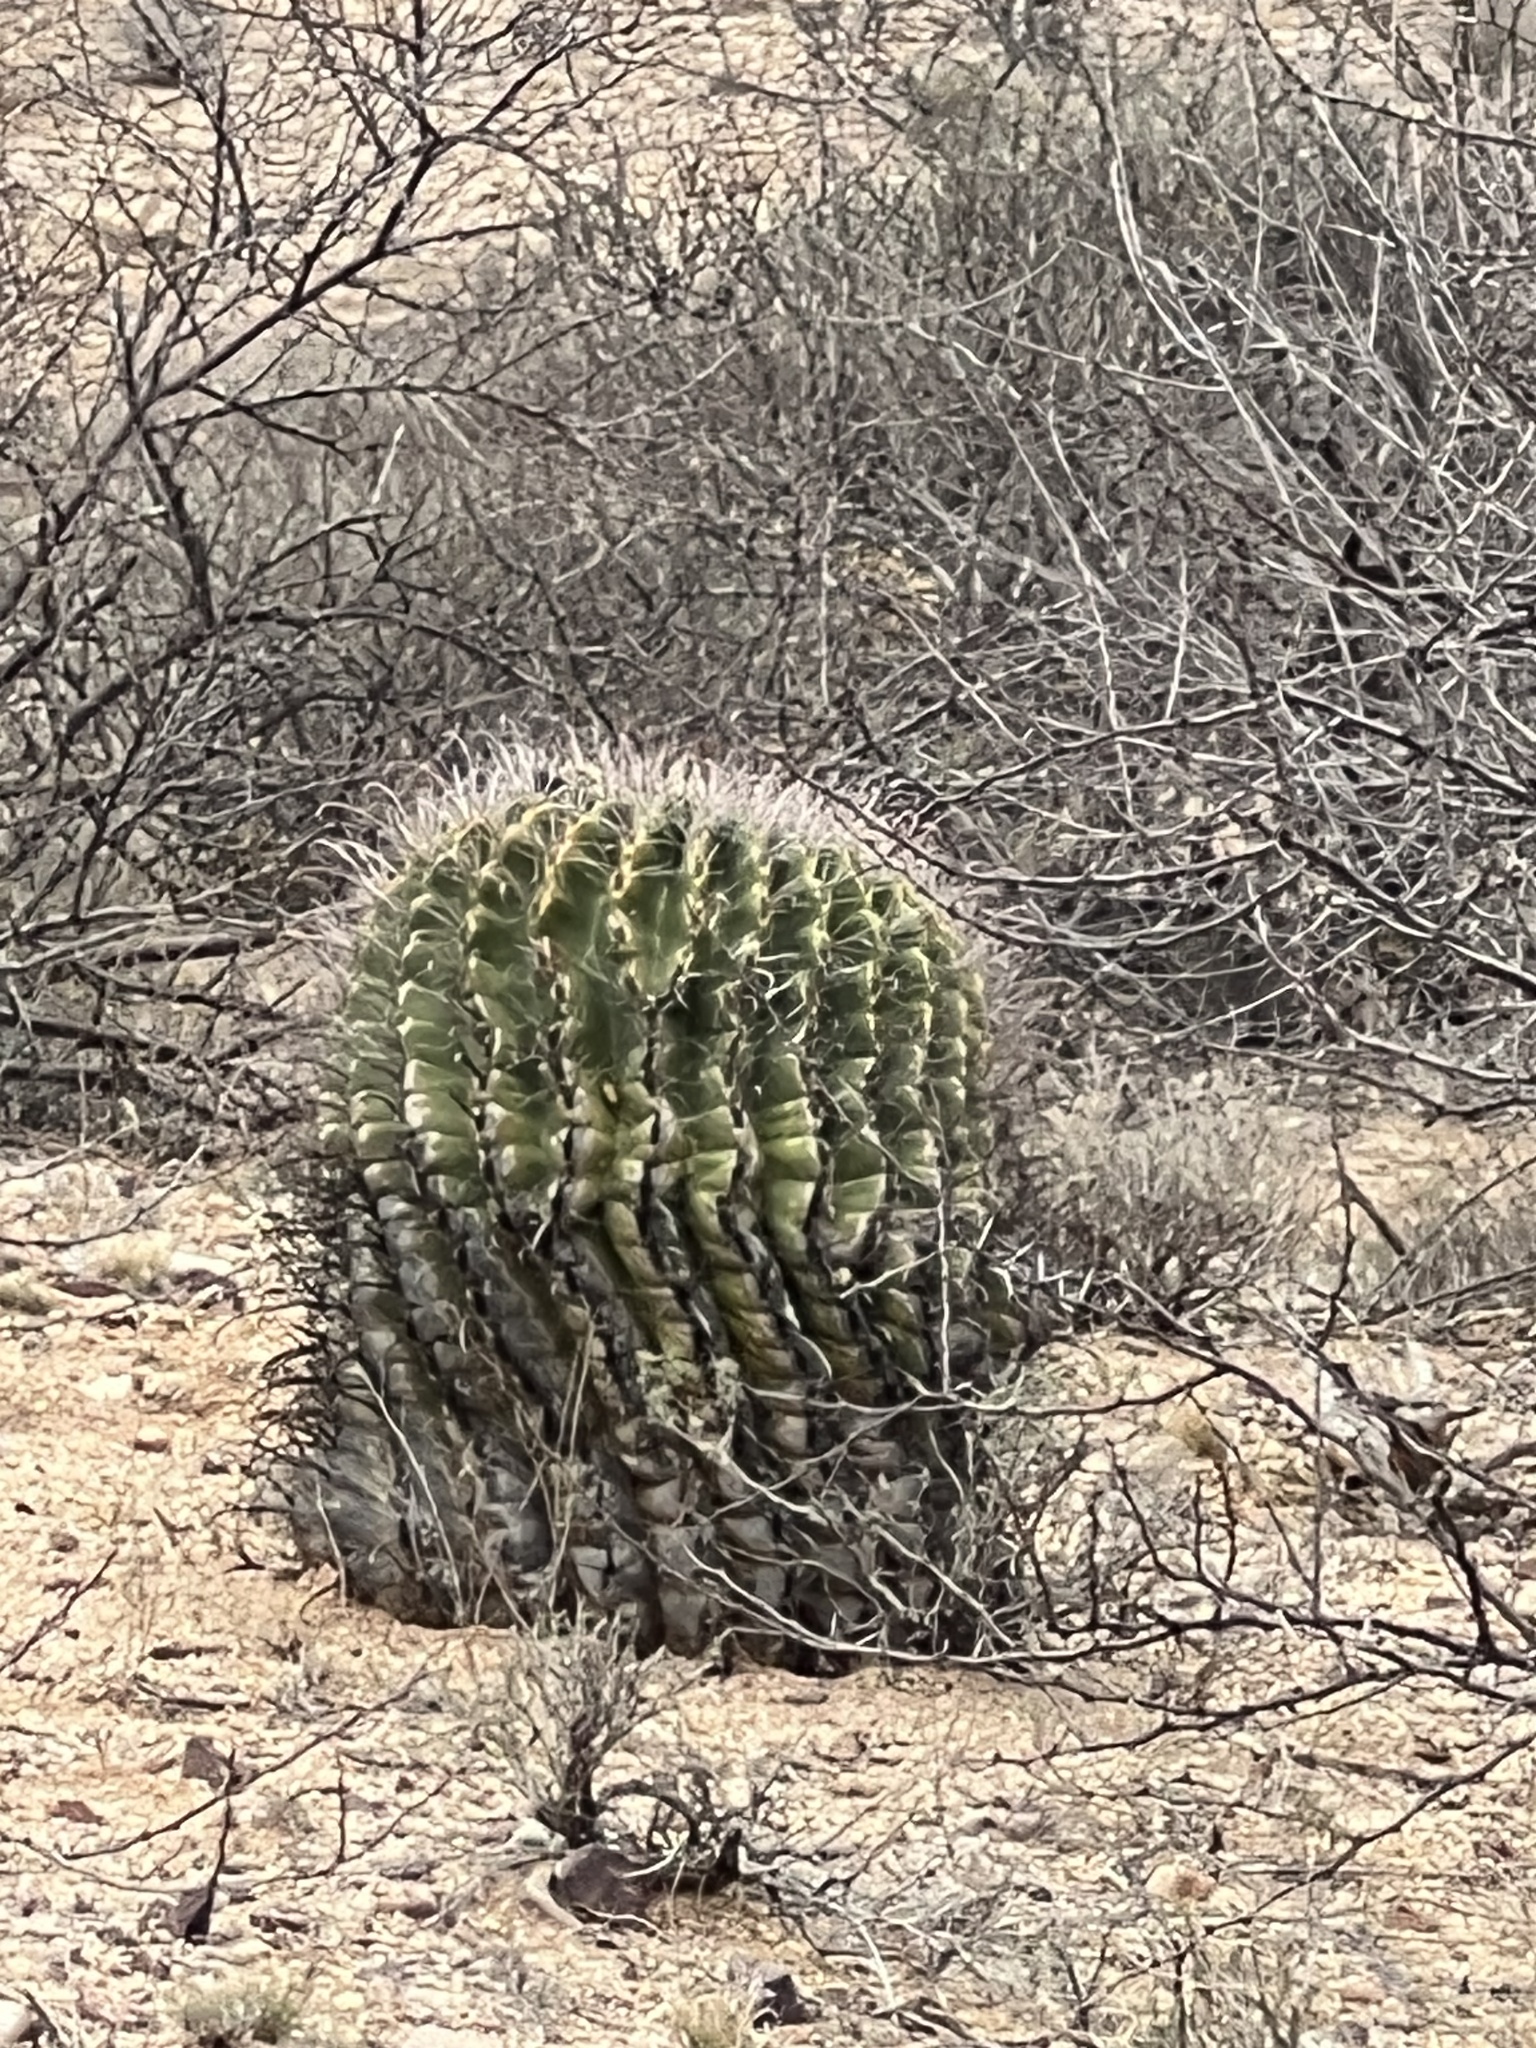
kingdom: Plantae
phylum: Tracheophyta
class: Magnoliopsida
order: Caryophyllales
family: Cactaceae
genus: Ferocactus
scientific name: Ferocactus wislizeni
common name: Candy barrel cactus
